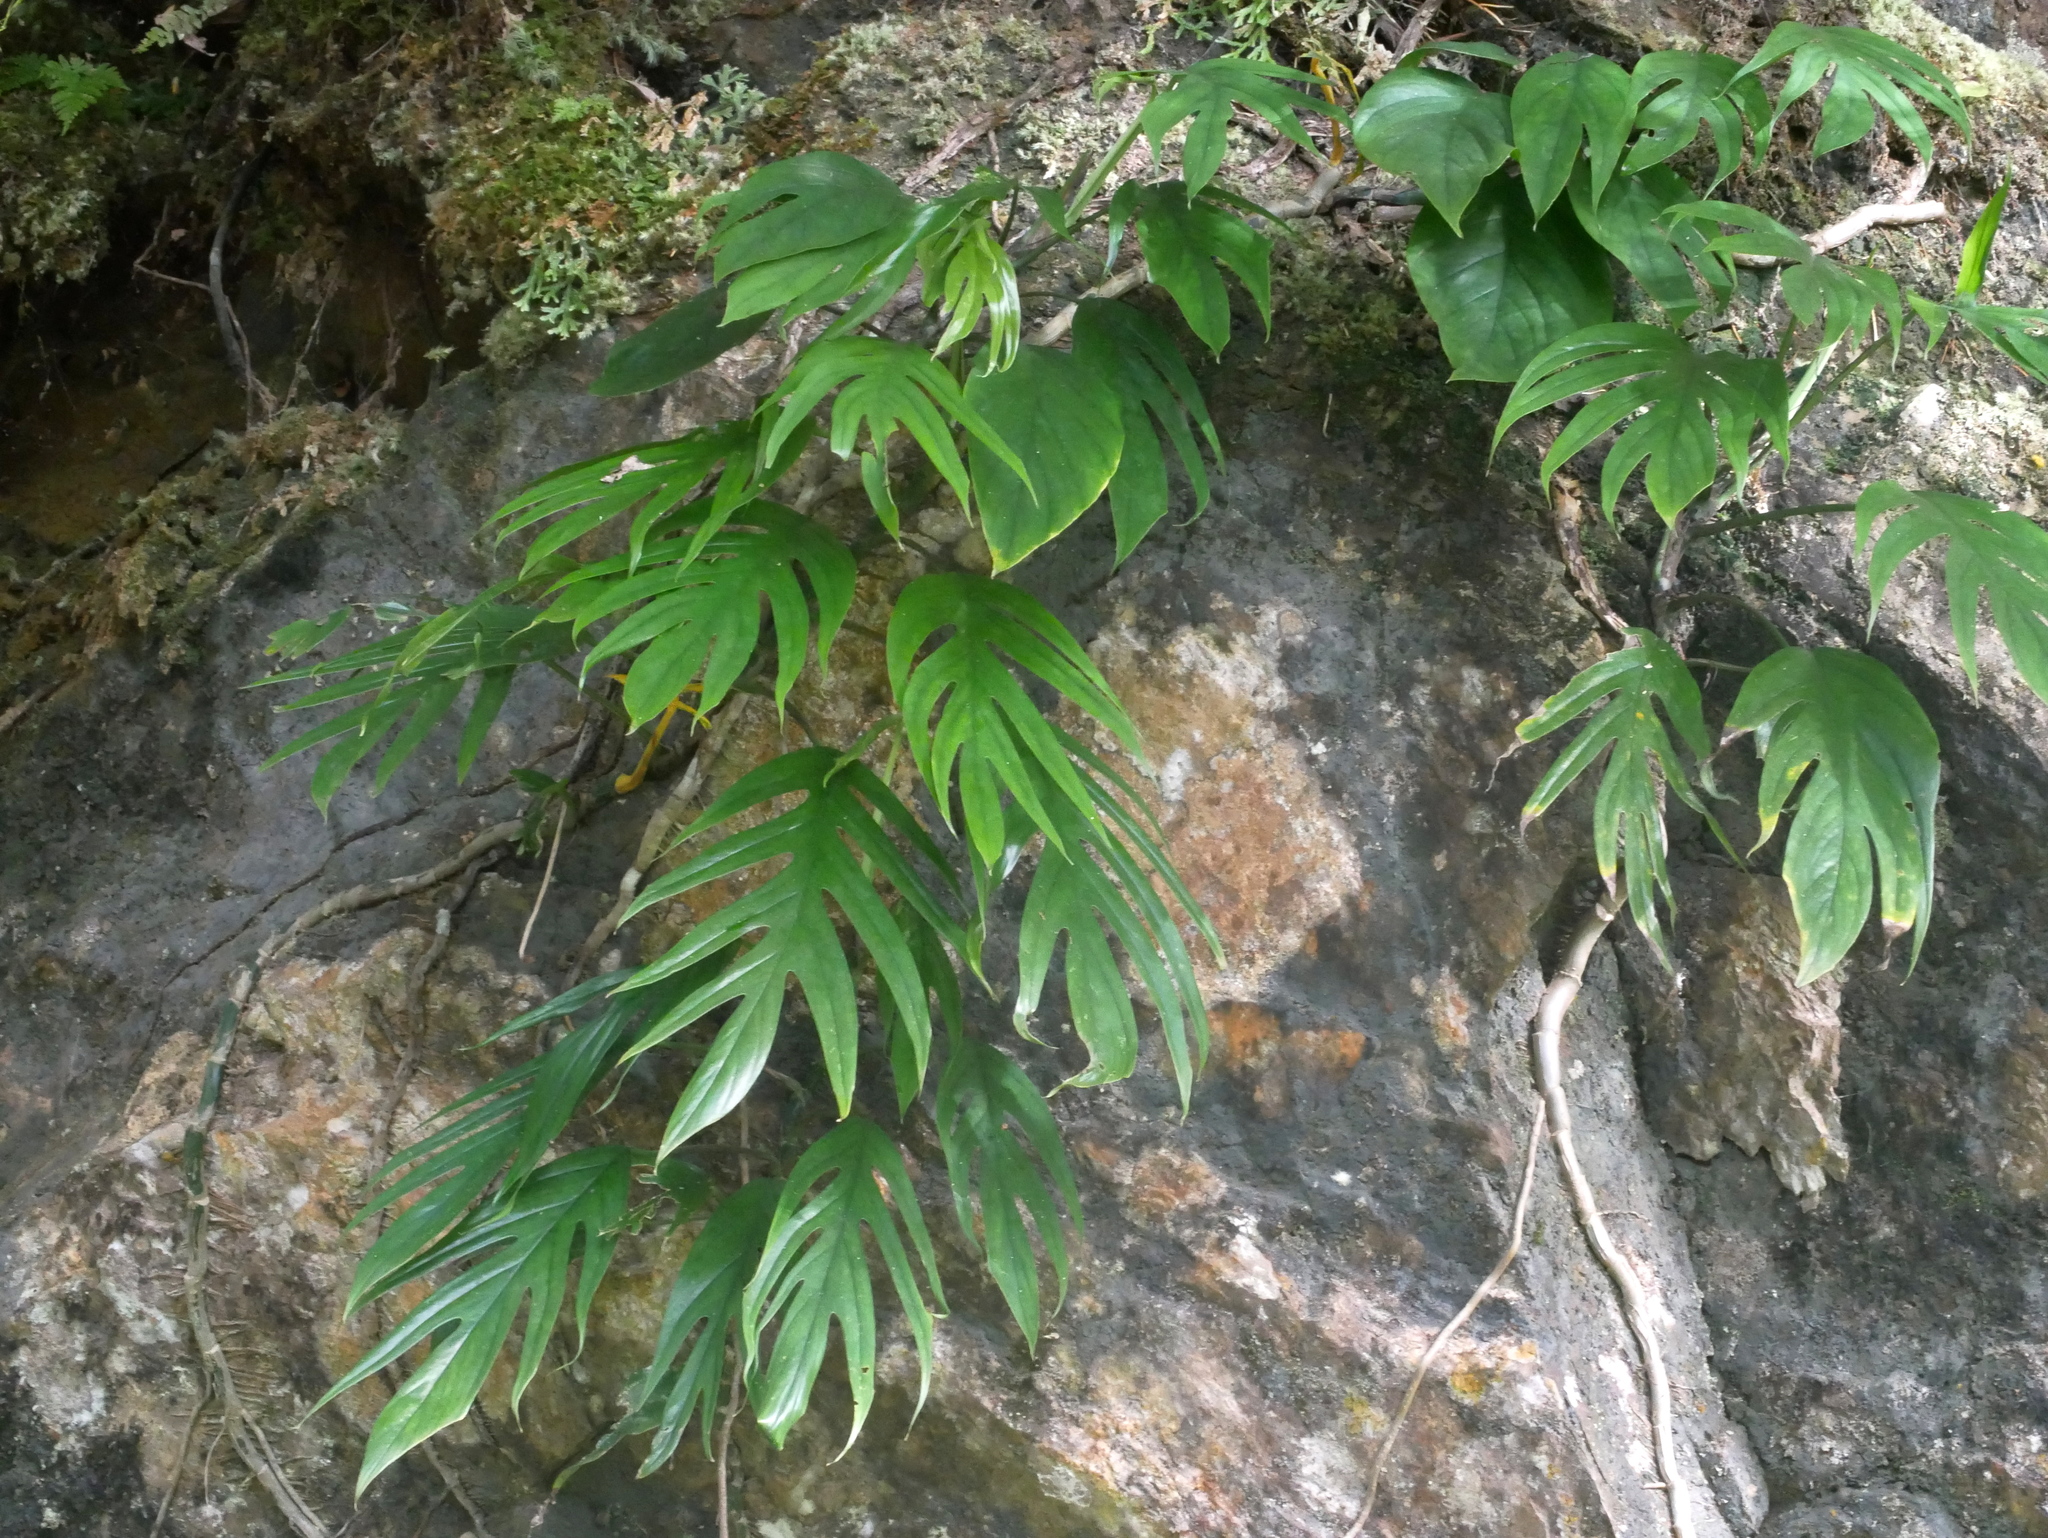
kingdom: Plantae
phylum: Tracheophyta
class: Liliopsida
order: Alismatales
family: Araceae
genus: Epipremnum
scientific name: Epipremnum pinnatum
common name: Centipede tongavine
